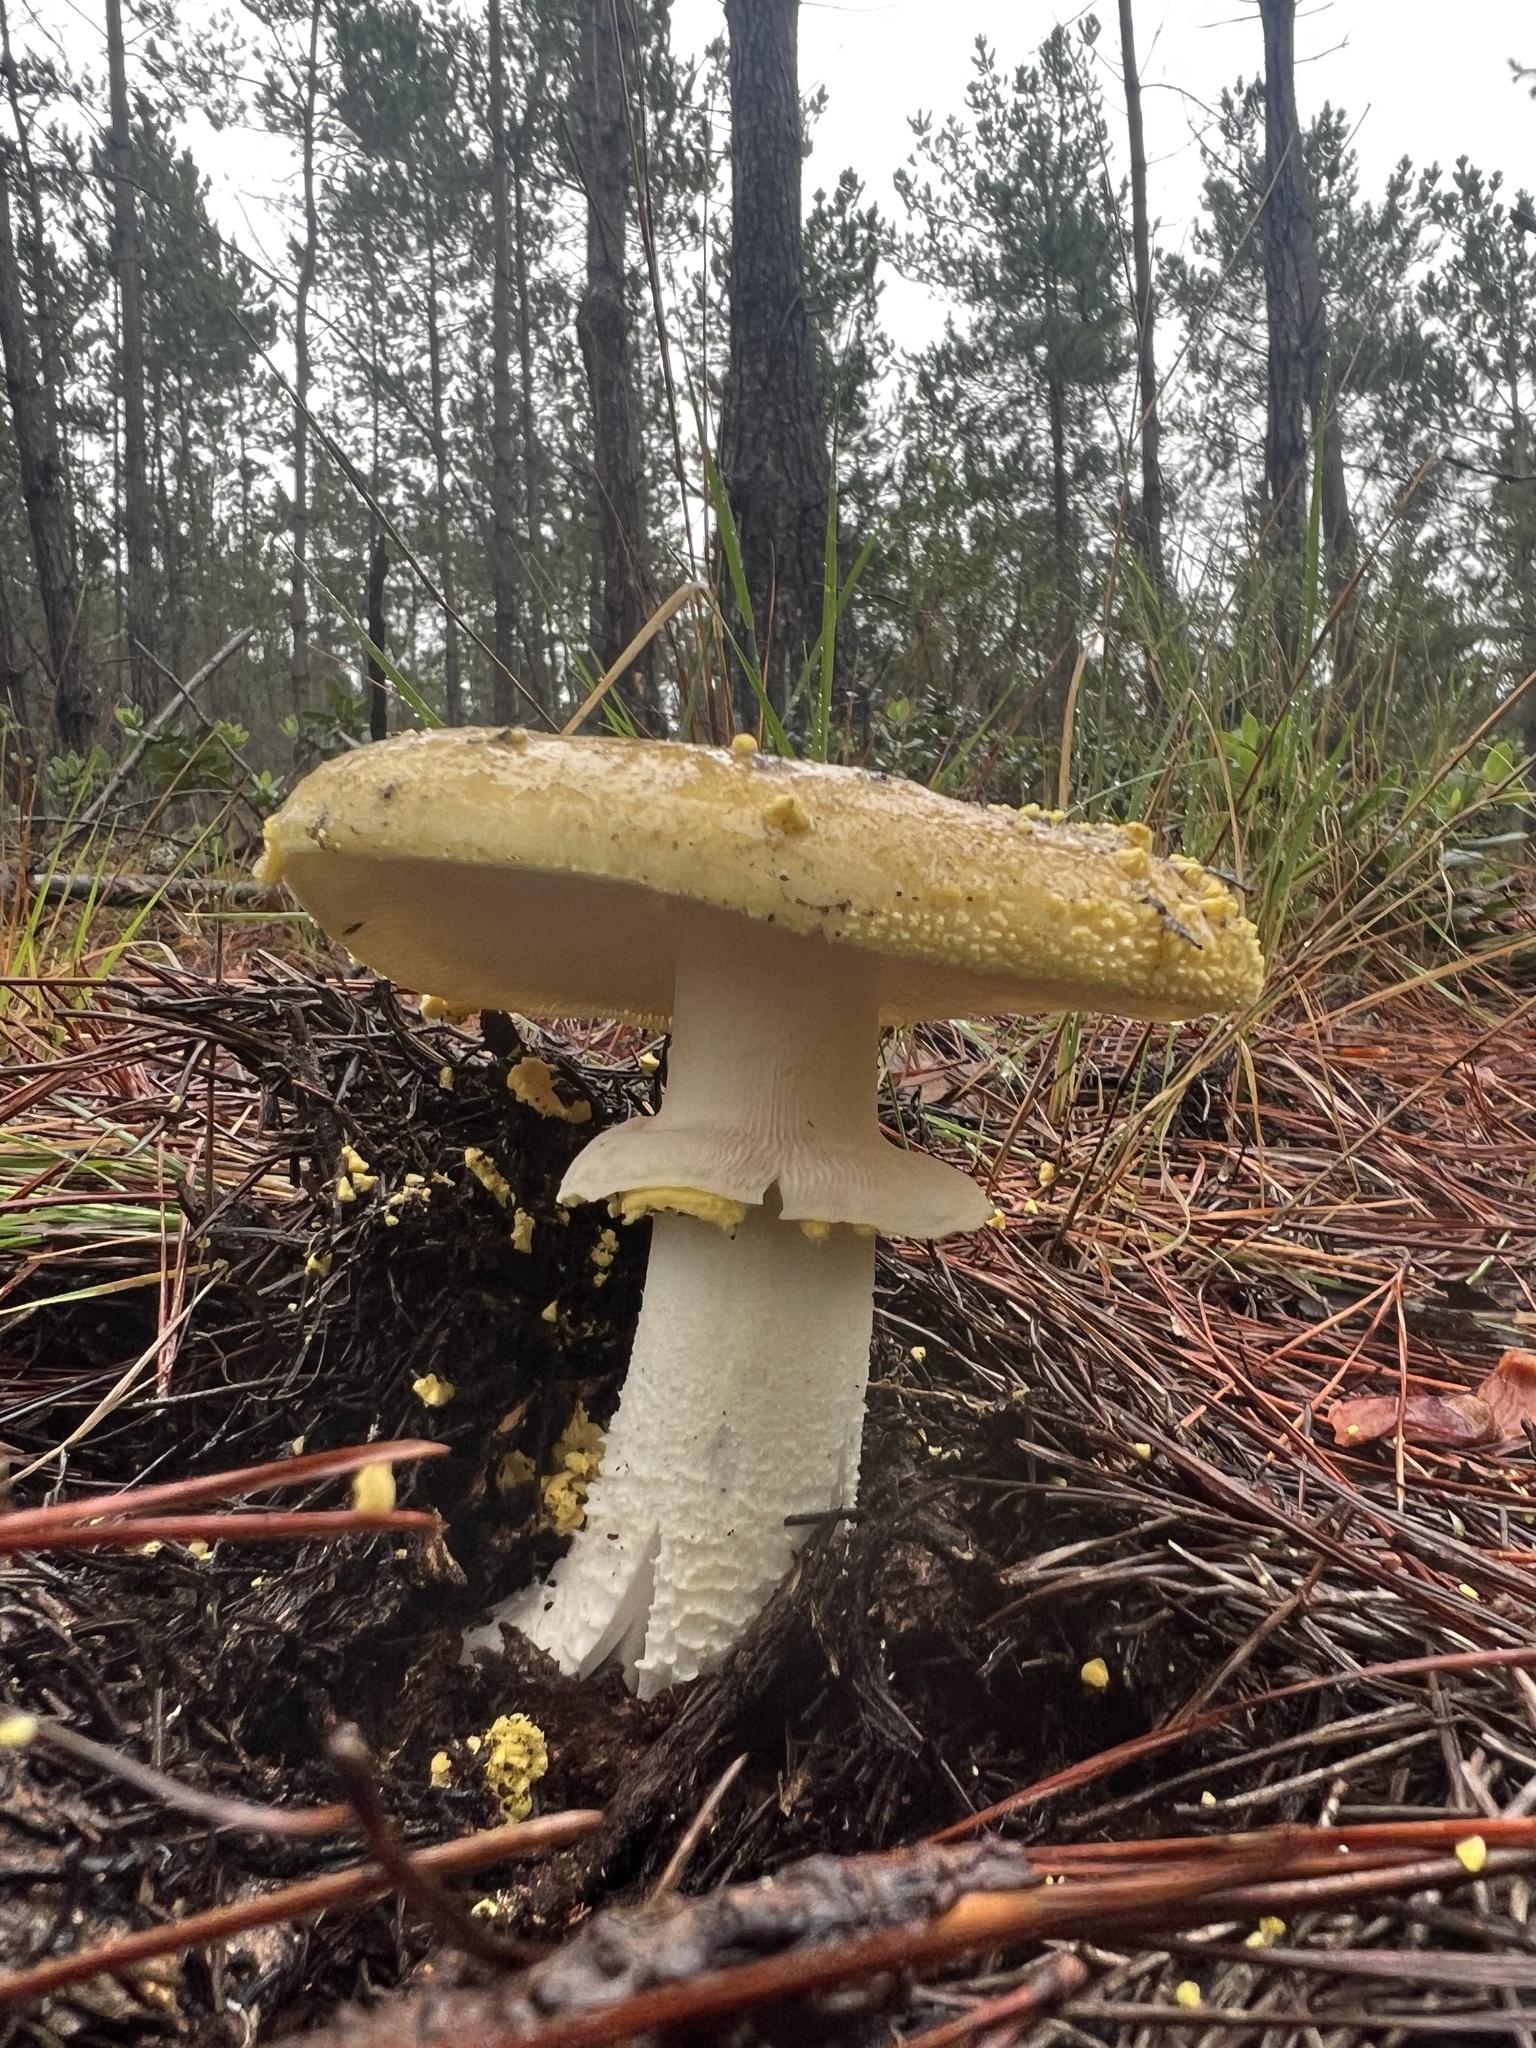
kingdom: Fungi
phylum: Basidiomycota
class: Agaricomycetes
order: Agaricales
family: Amanitaceae
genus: Amanita
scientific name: Amanita augusta
